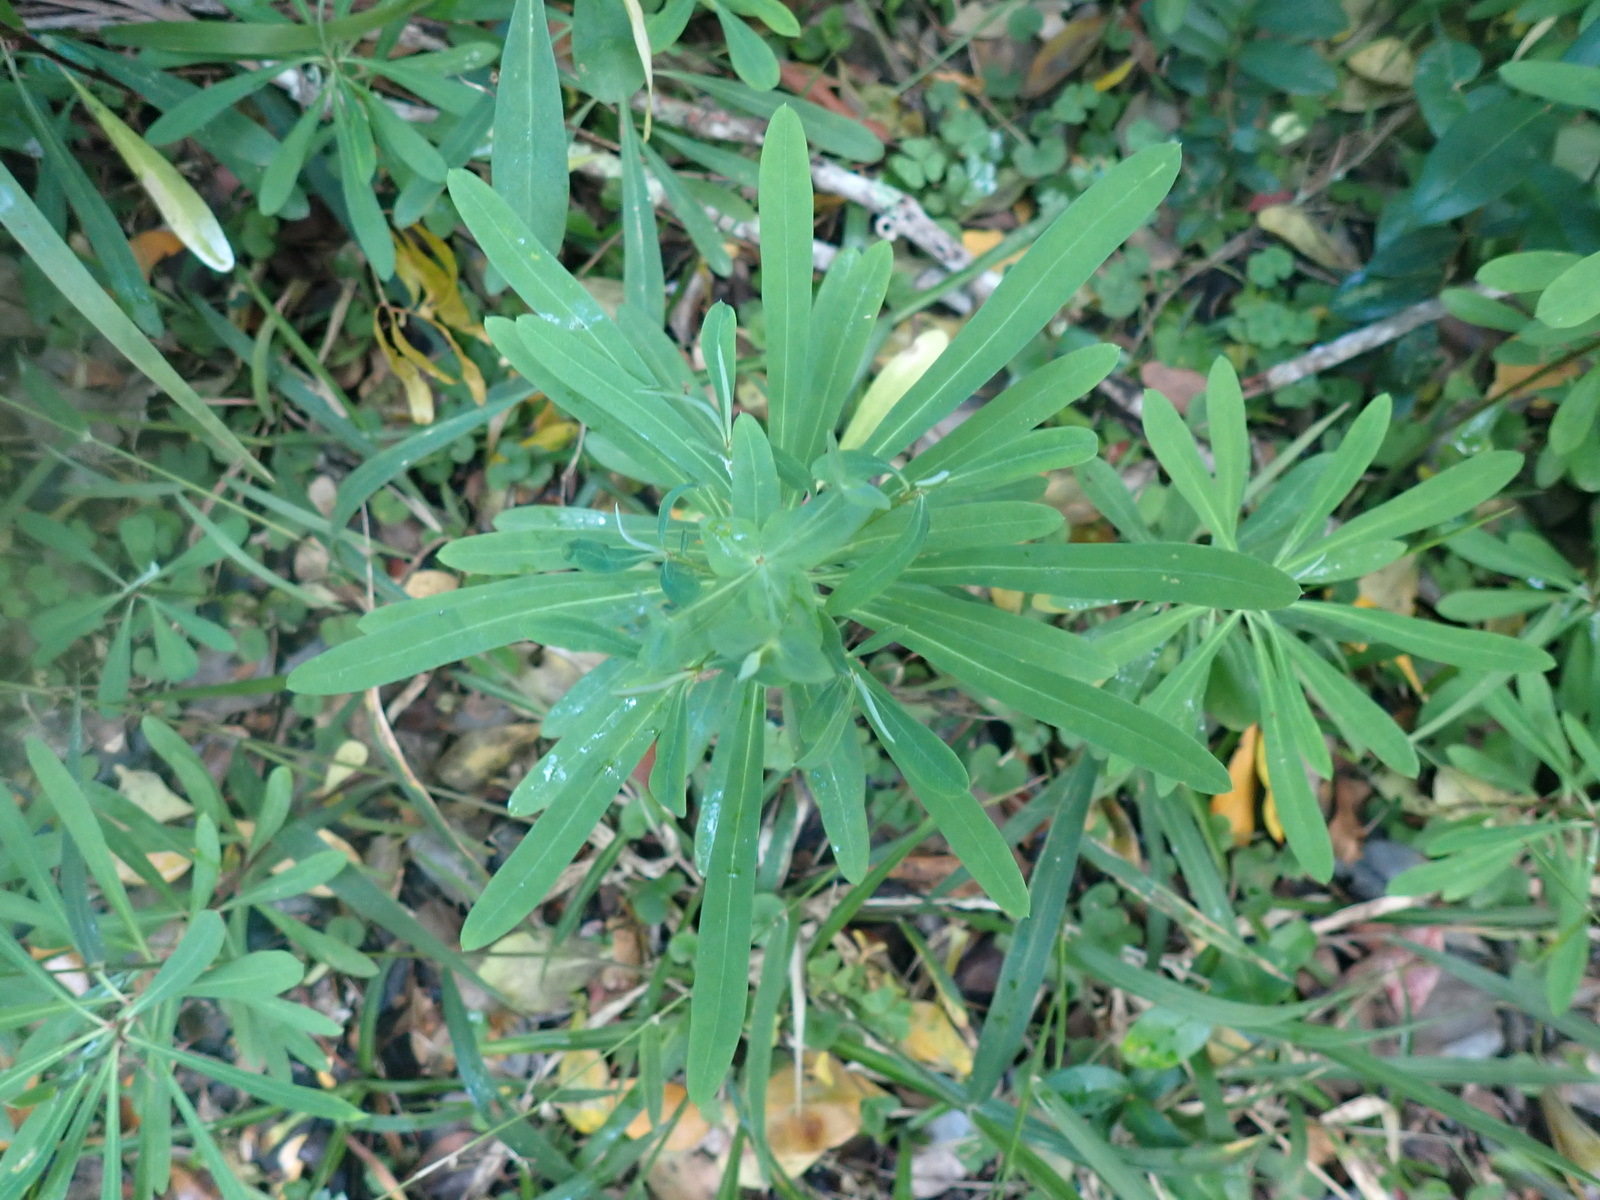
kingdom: Plantae
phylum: Tracheophyta
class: Magnoliopsida
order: Malpighiales
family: Euphorbiaceae
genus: Euphorbia
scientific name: Euphorbia kraussiana
